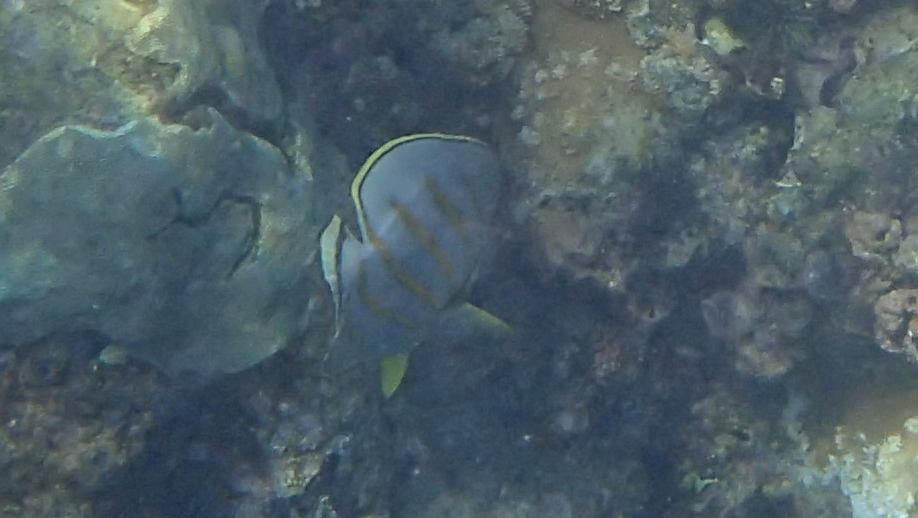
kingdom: Animalia
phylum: Chordata
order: Perciformes
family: Chaetodontidae
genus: Chaetodon
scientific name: Chaetodon ornatissimus
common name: Ornate butterflyfish
